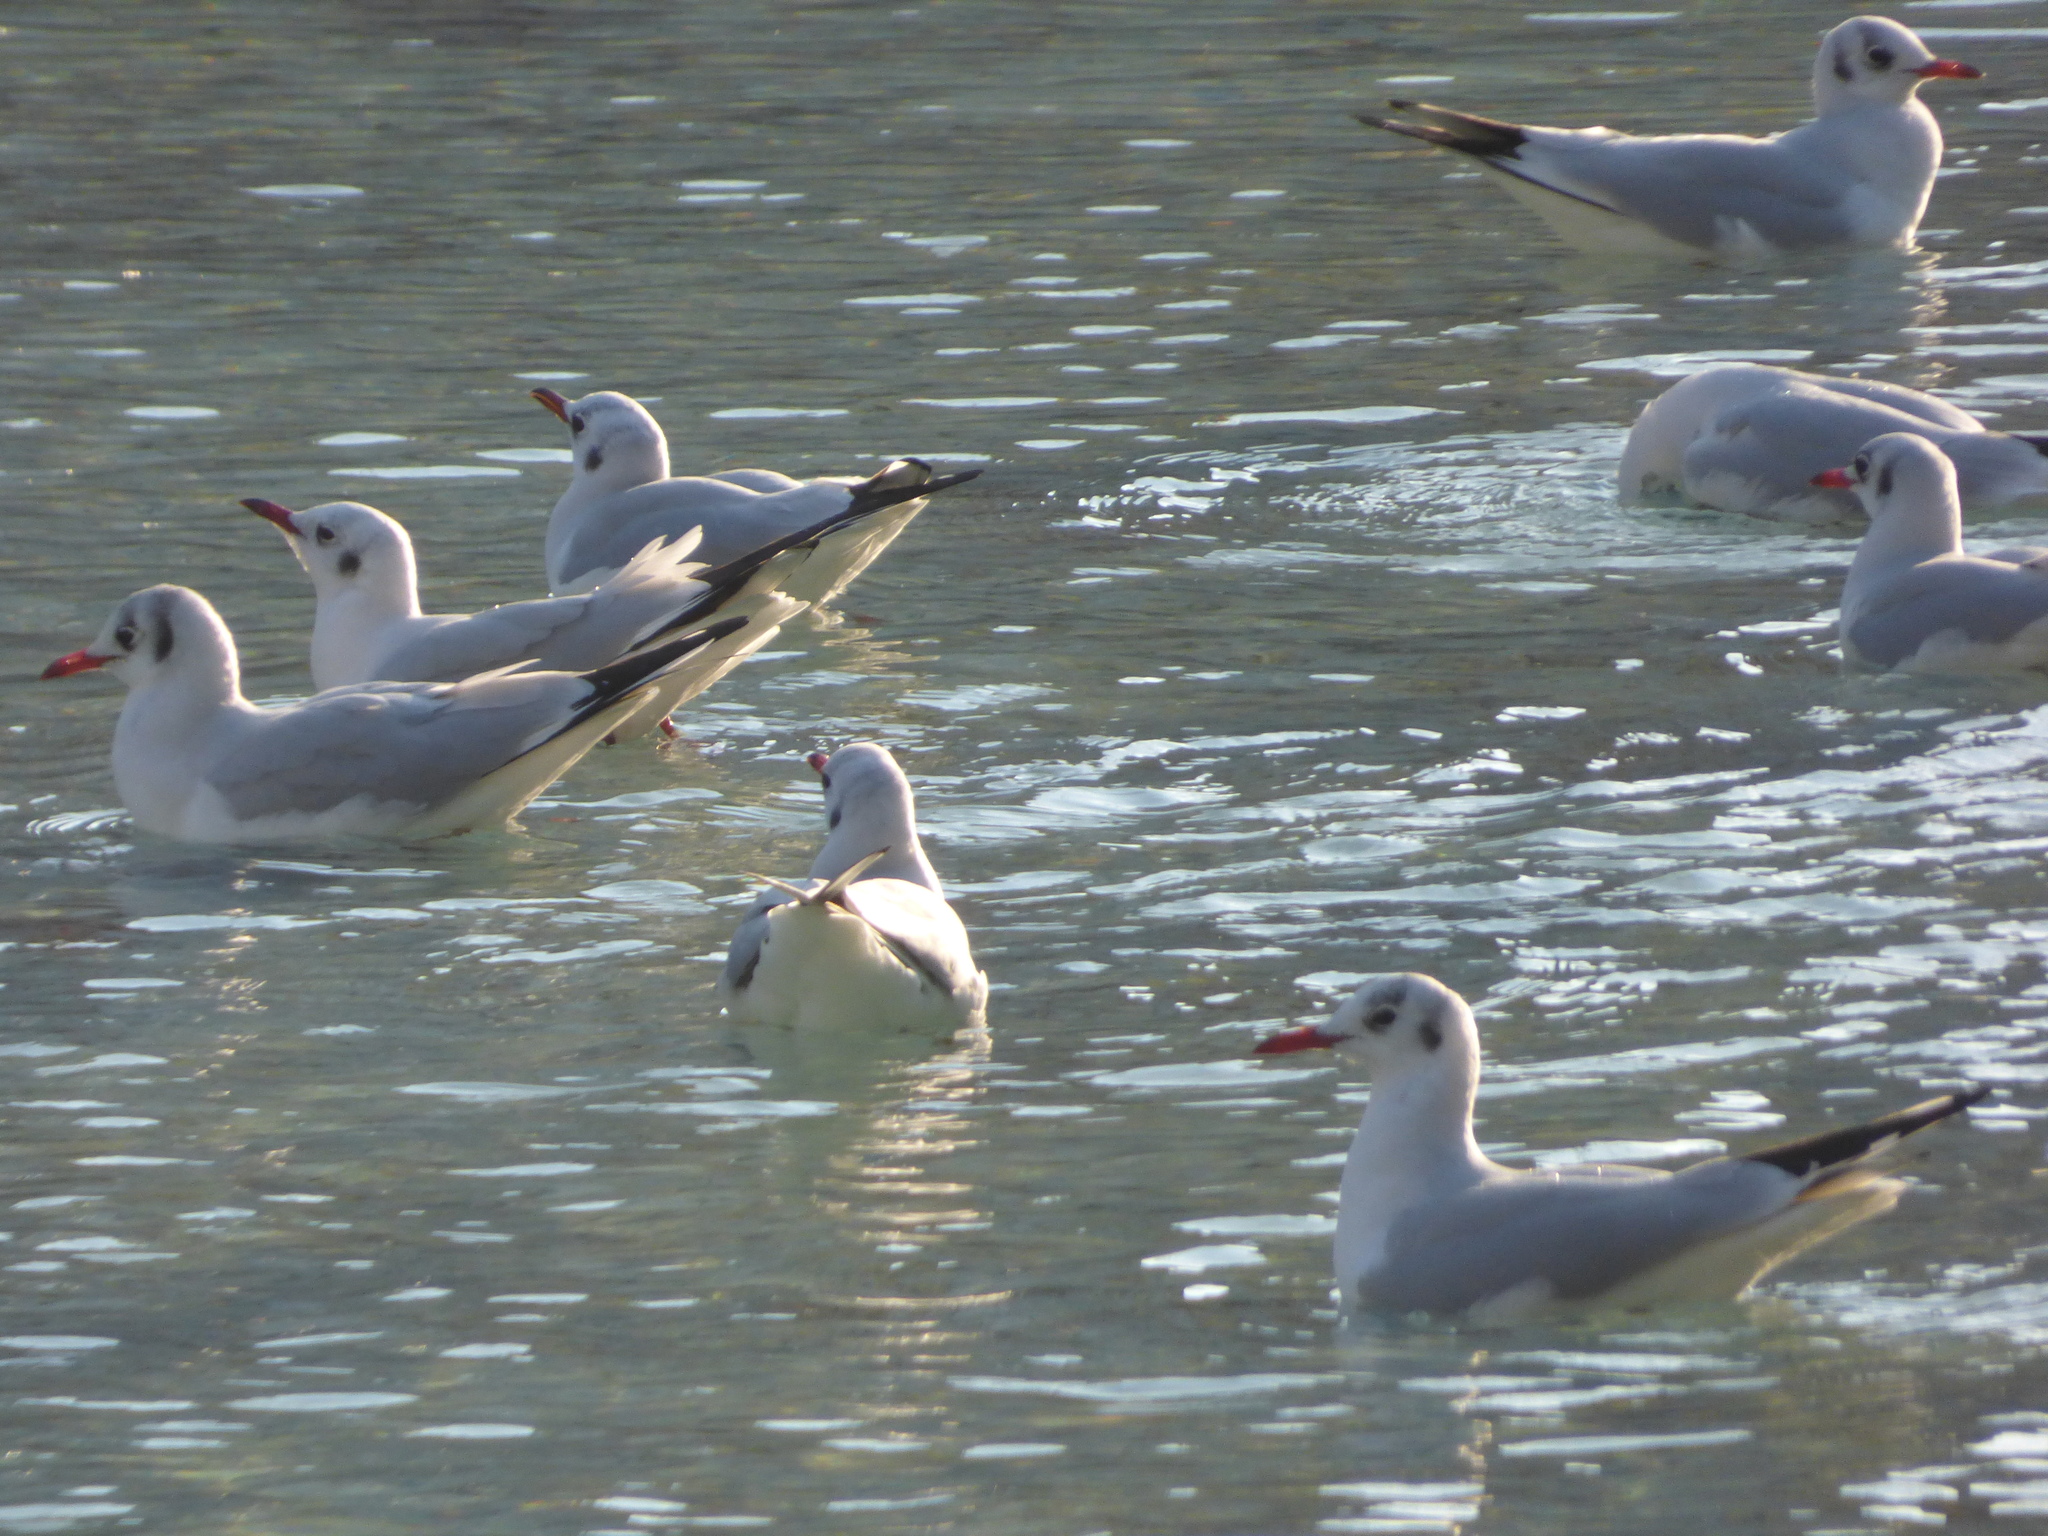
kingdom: Animalia
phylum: Chordata
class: Aves
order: Charadriiformes
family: Laridae
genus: Chroicocephalus
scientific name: Chroicocephalus ridibundus
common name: Black-headed gull
